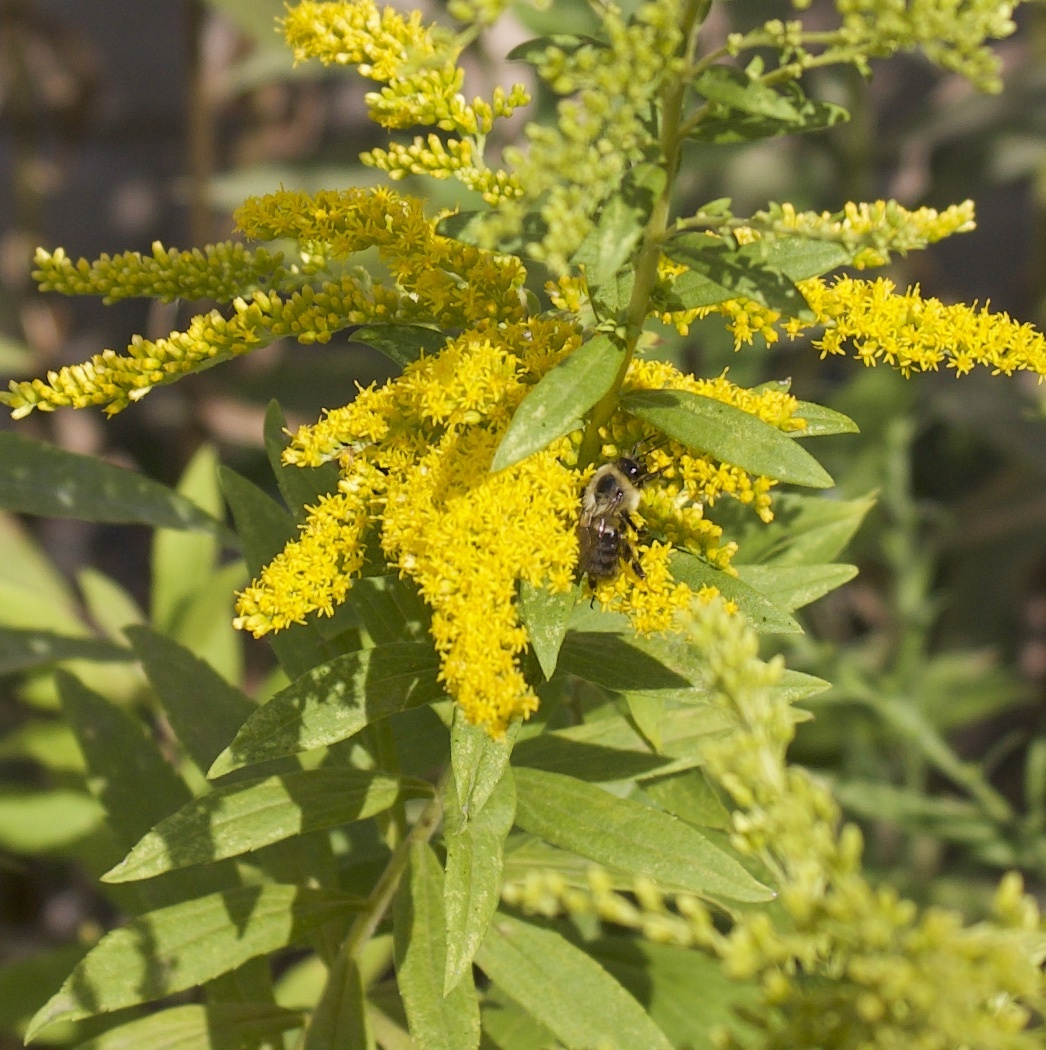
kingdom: Animalia
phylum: Arthropoda
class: Insecta
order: Hymenoptera
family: Apidae
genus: Bombus
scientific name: Bombus impatiens
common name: Common eastern bumble bee
